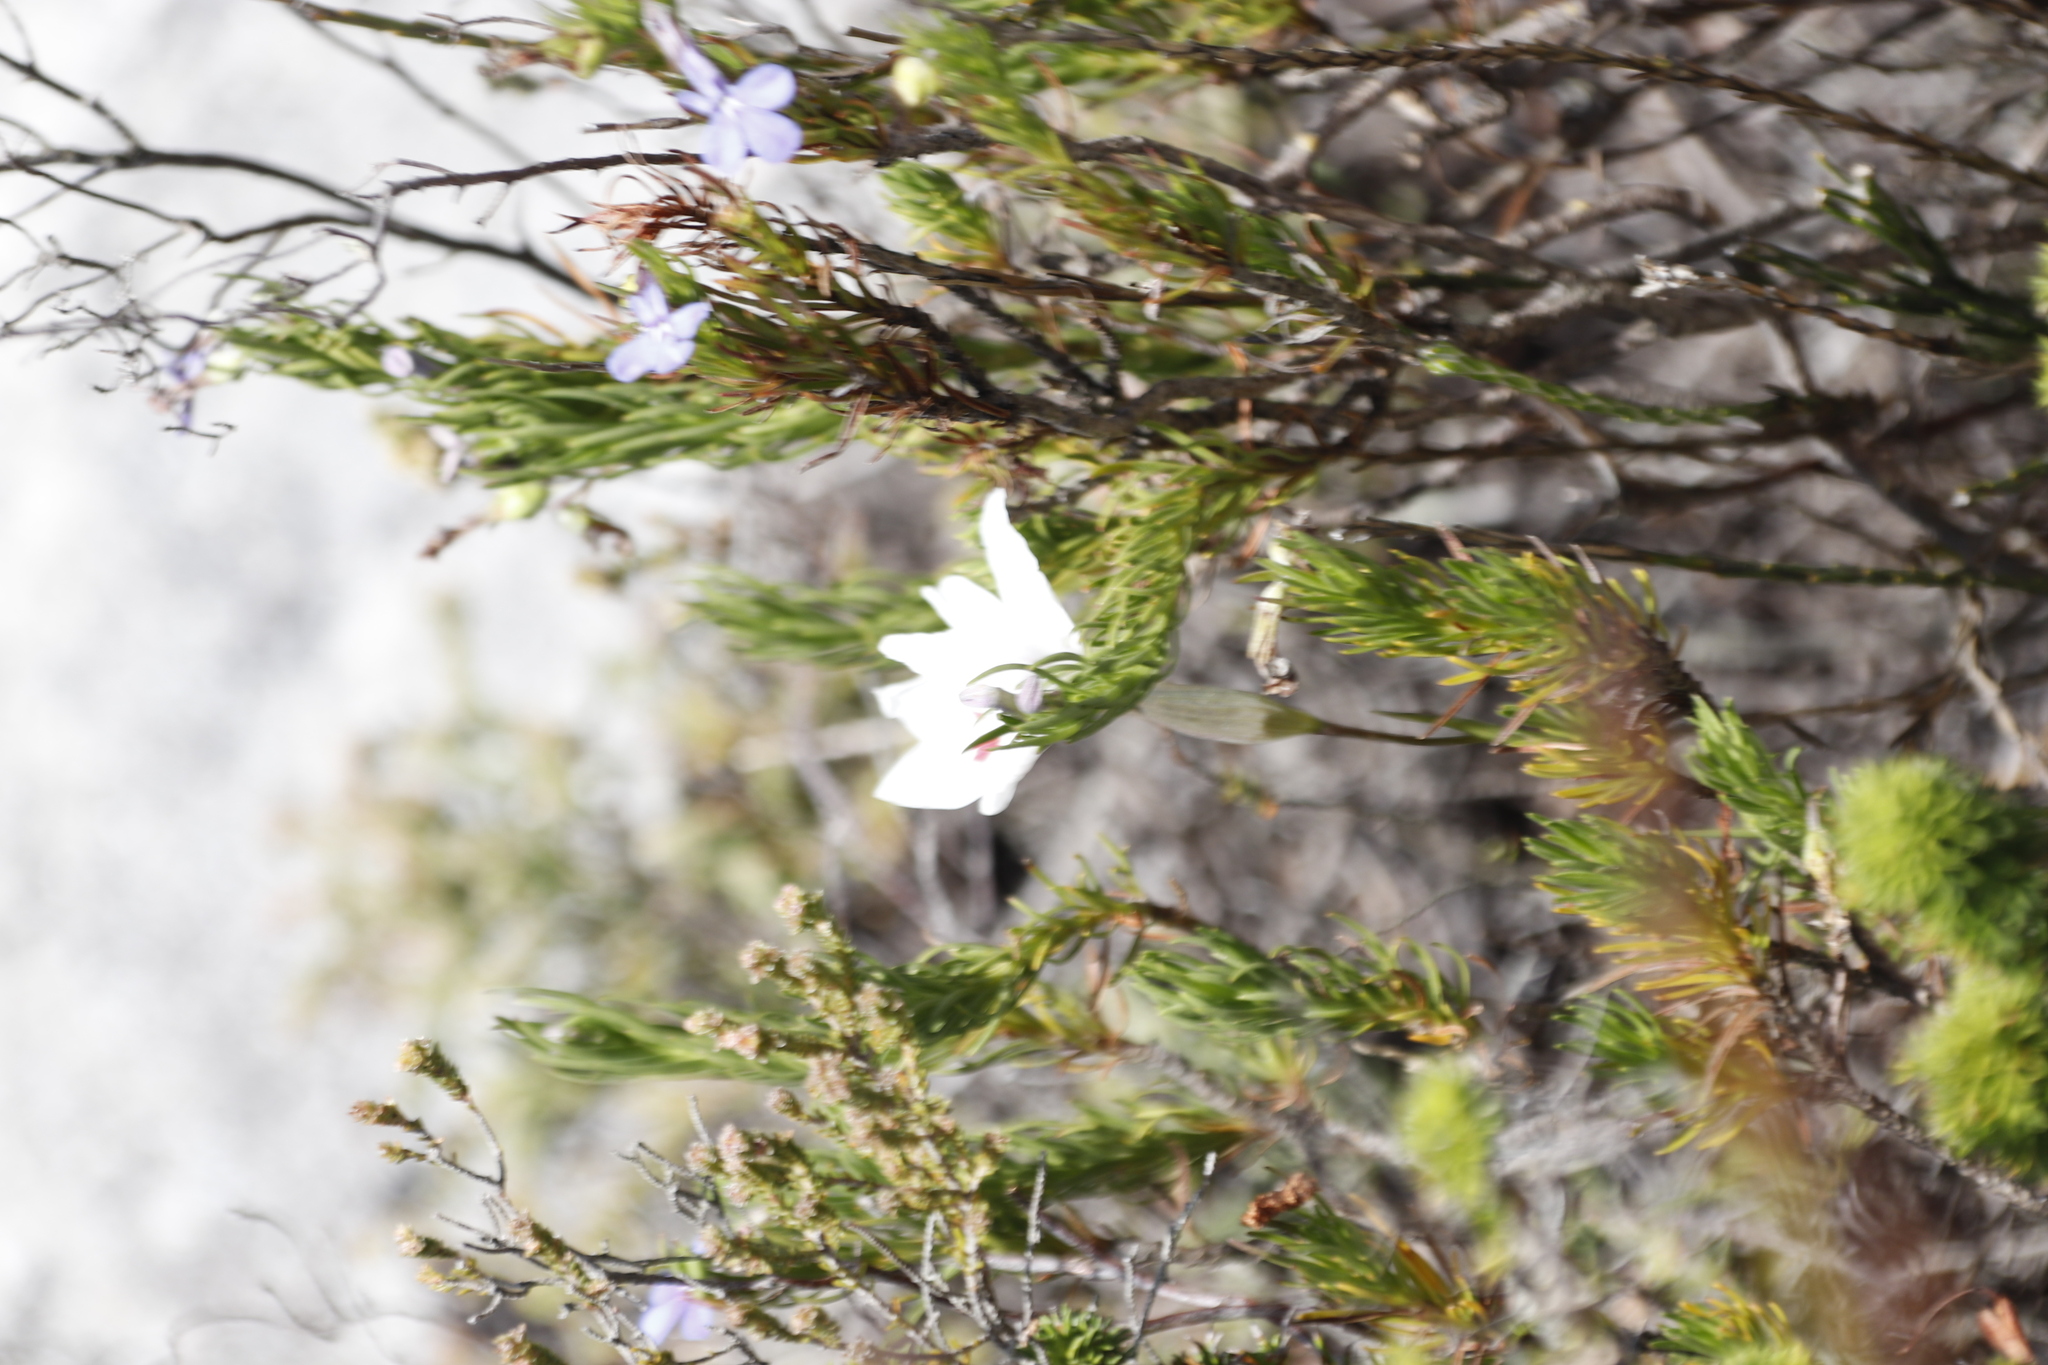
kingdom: Plantae
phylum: Tracheophyta
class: Liliopsida
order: Asparagales
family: Iridaceae
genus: Gladiolus
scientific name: Gladiolus debilis
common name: Painted-lady
